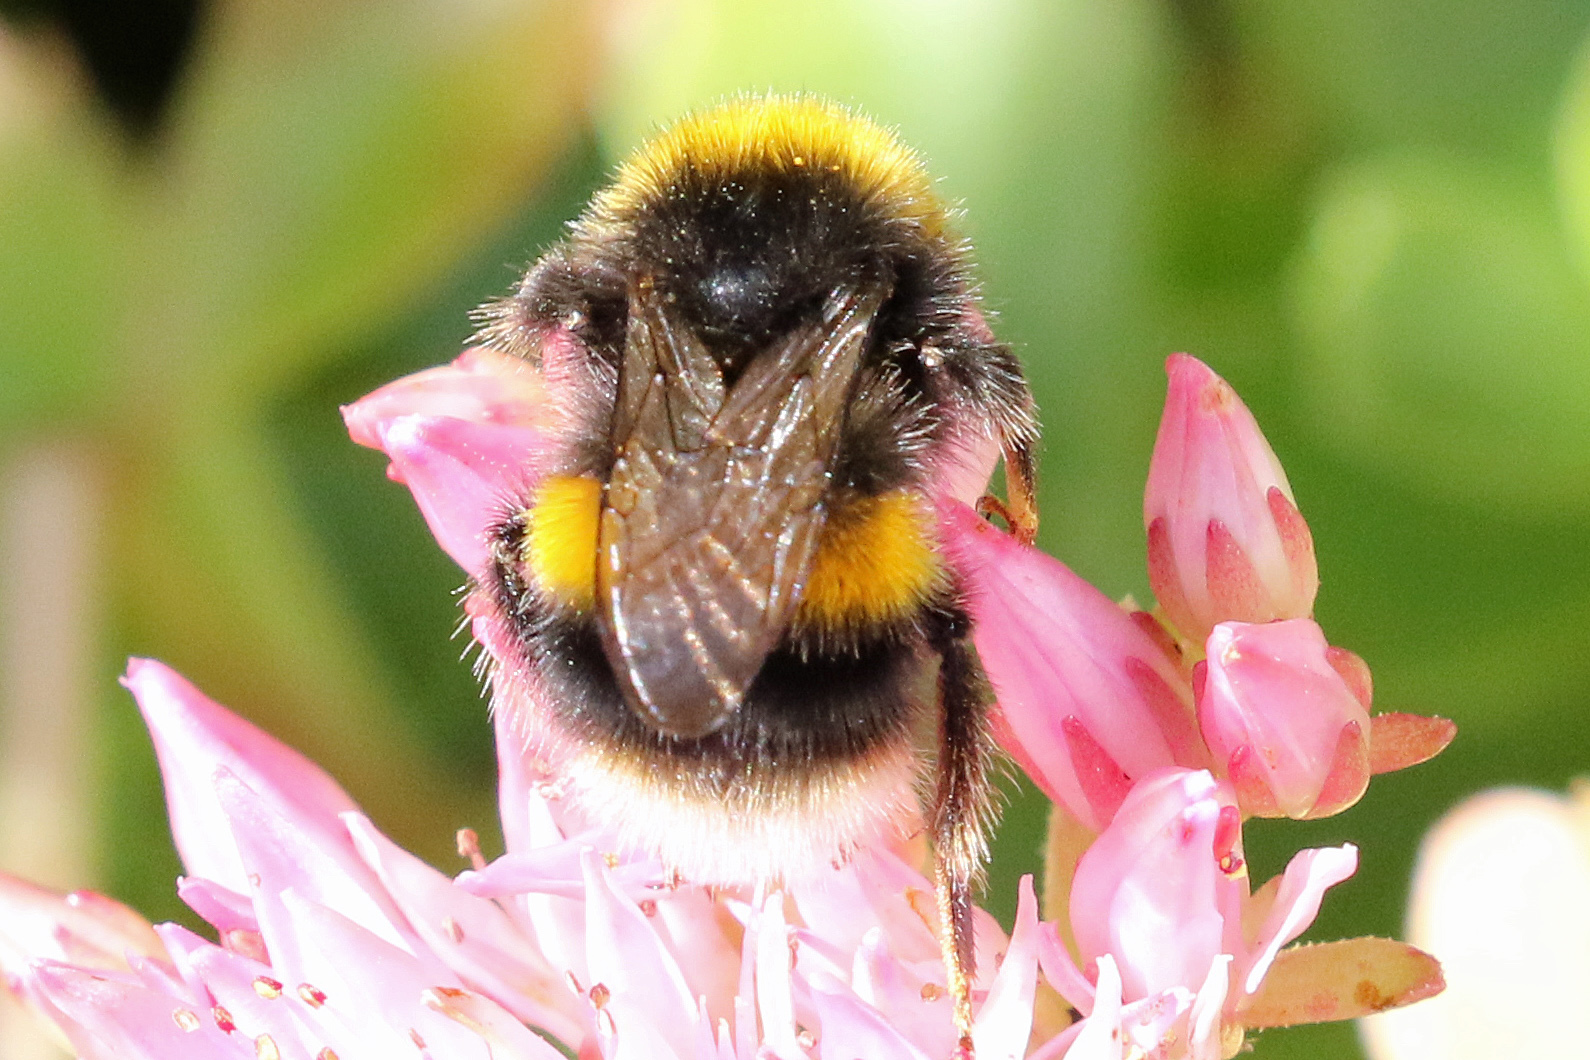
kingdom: Animalia
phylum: Arthropoda
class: Insecta
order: Hymenoptera
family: Apidae
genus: Bombus
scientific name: Bombus terrestris
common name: Buff-tailed bumblebee
